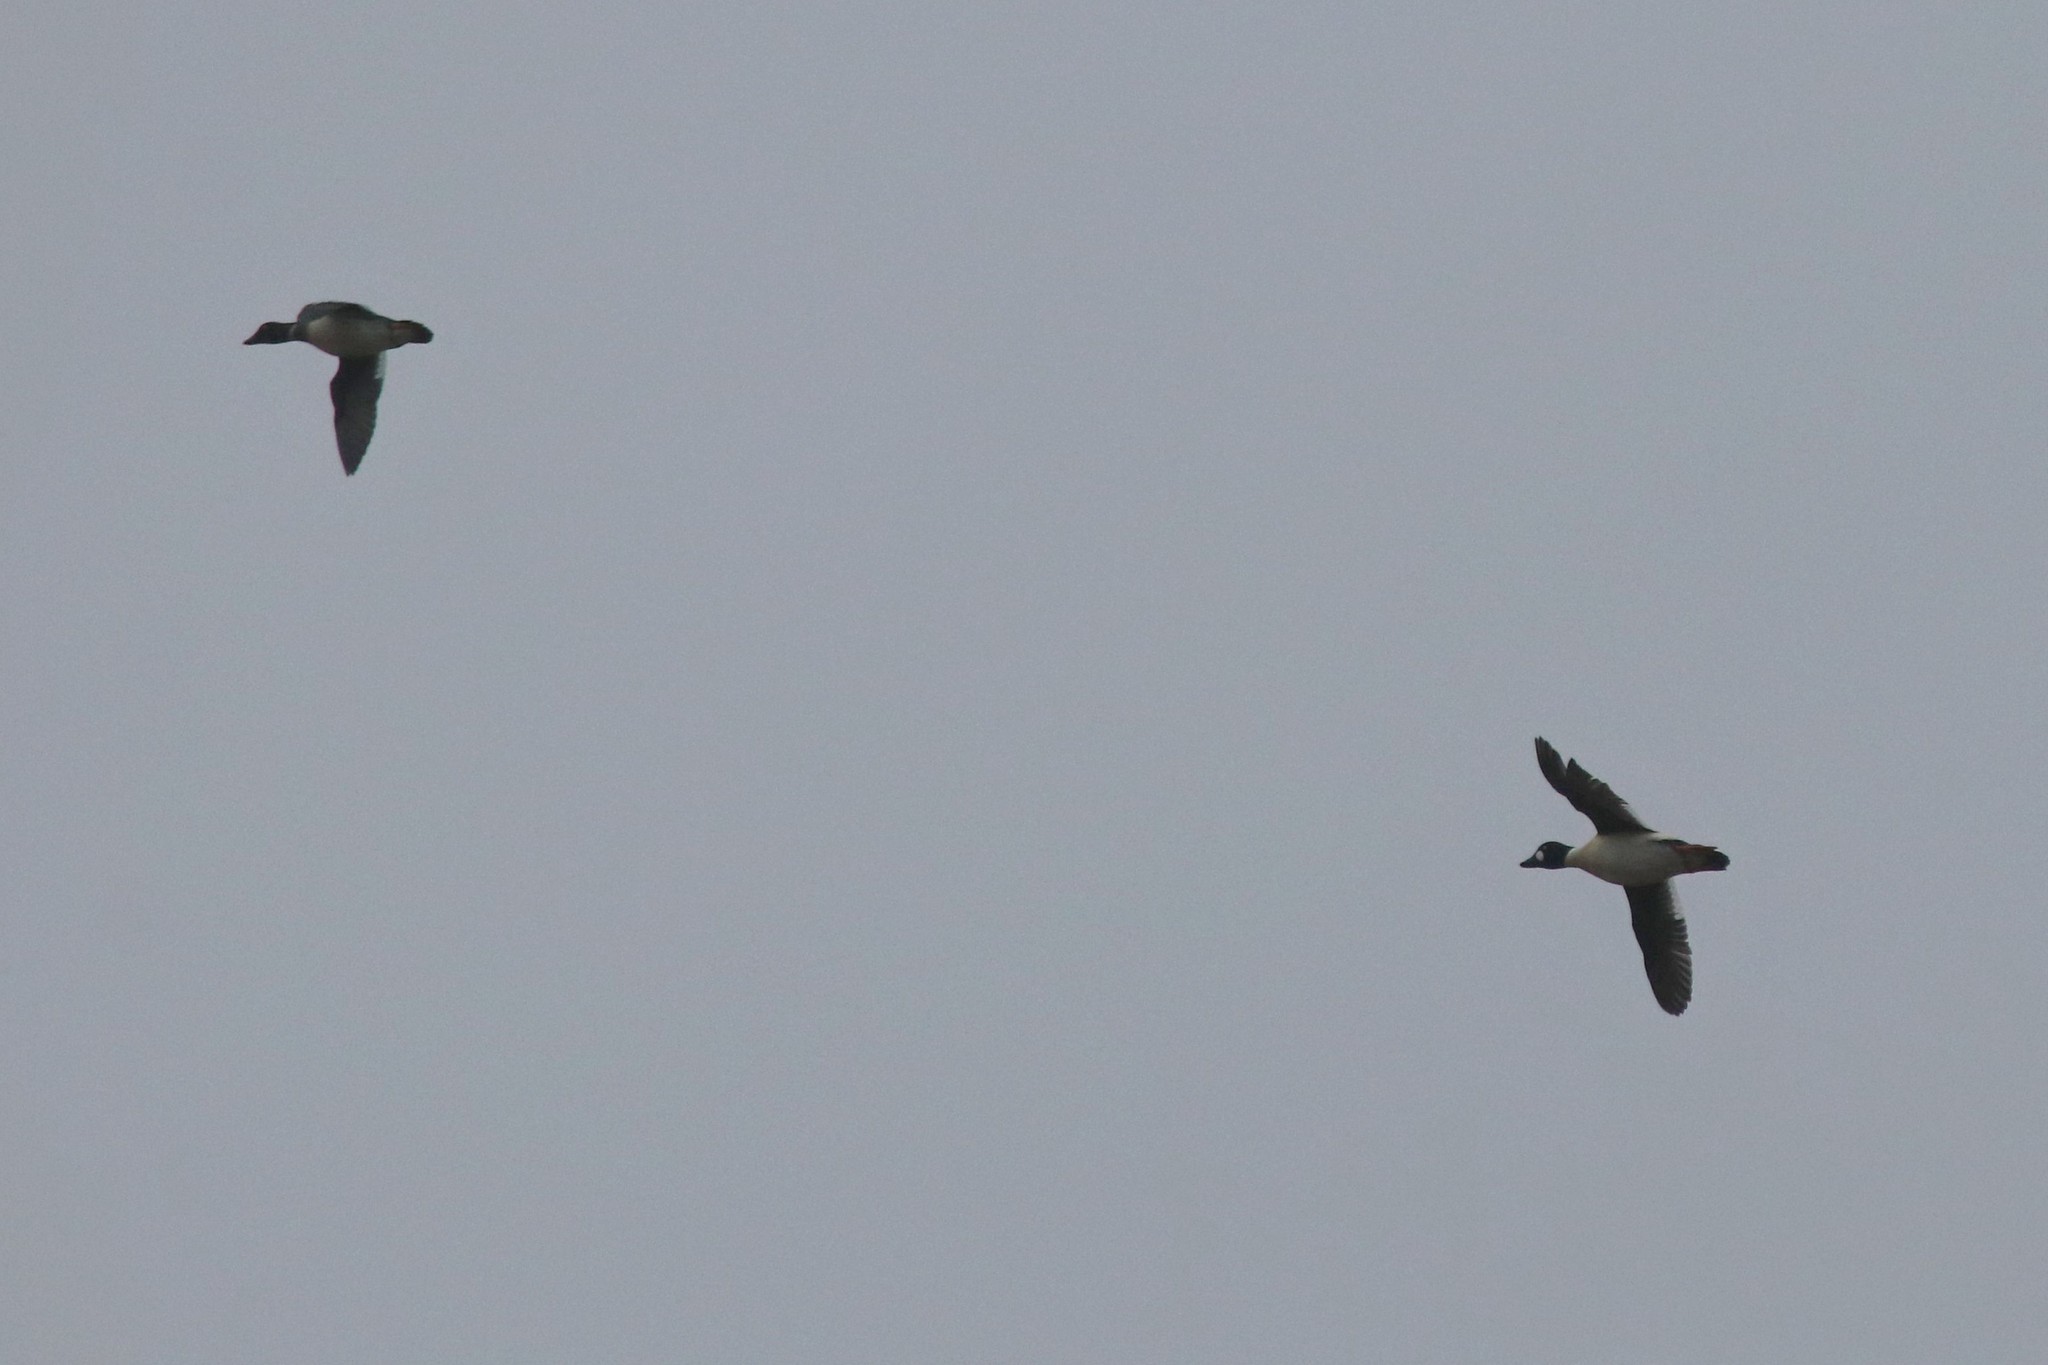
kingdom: Animalia
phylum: Chordata
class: Aves
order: Anseriformes
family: Anatidae
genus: Bucephala
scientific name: Bucephala clangula
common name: Common goldeneye
